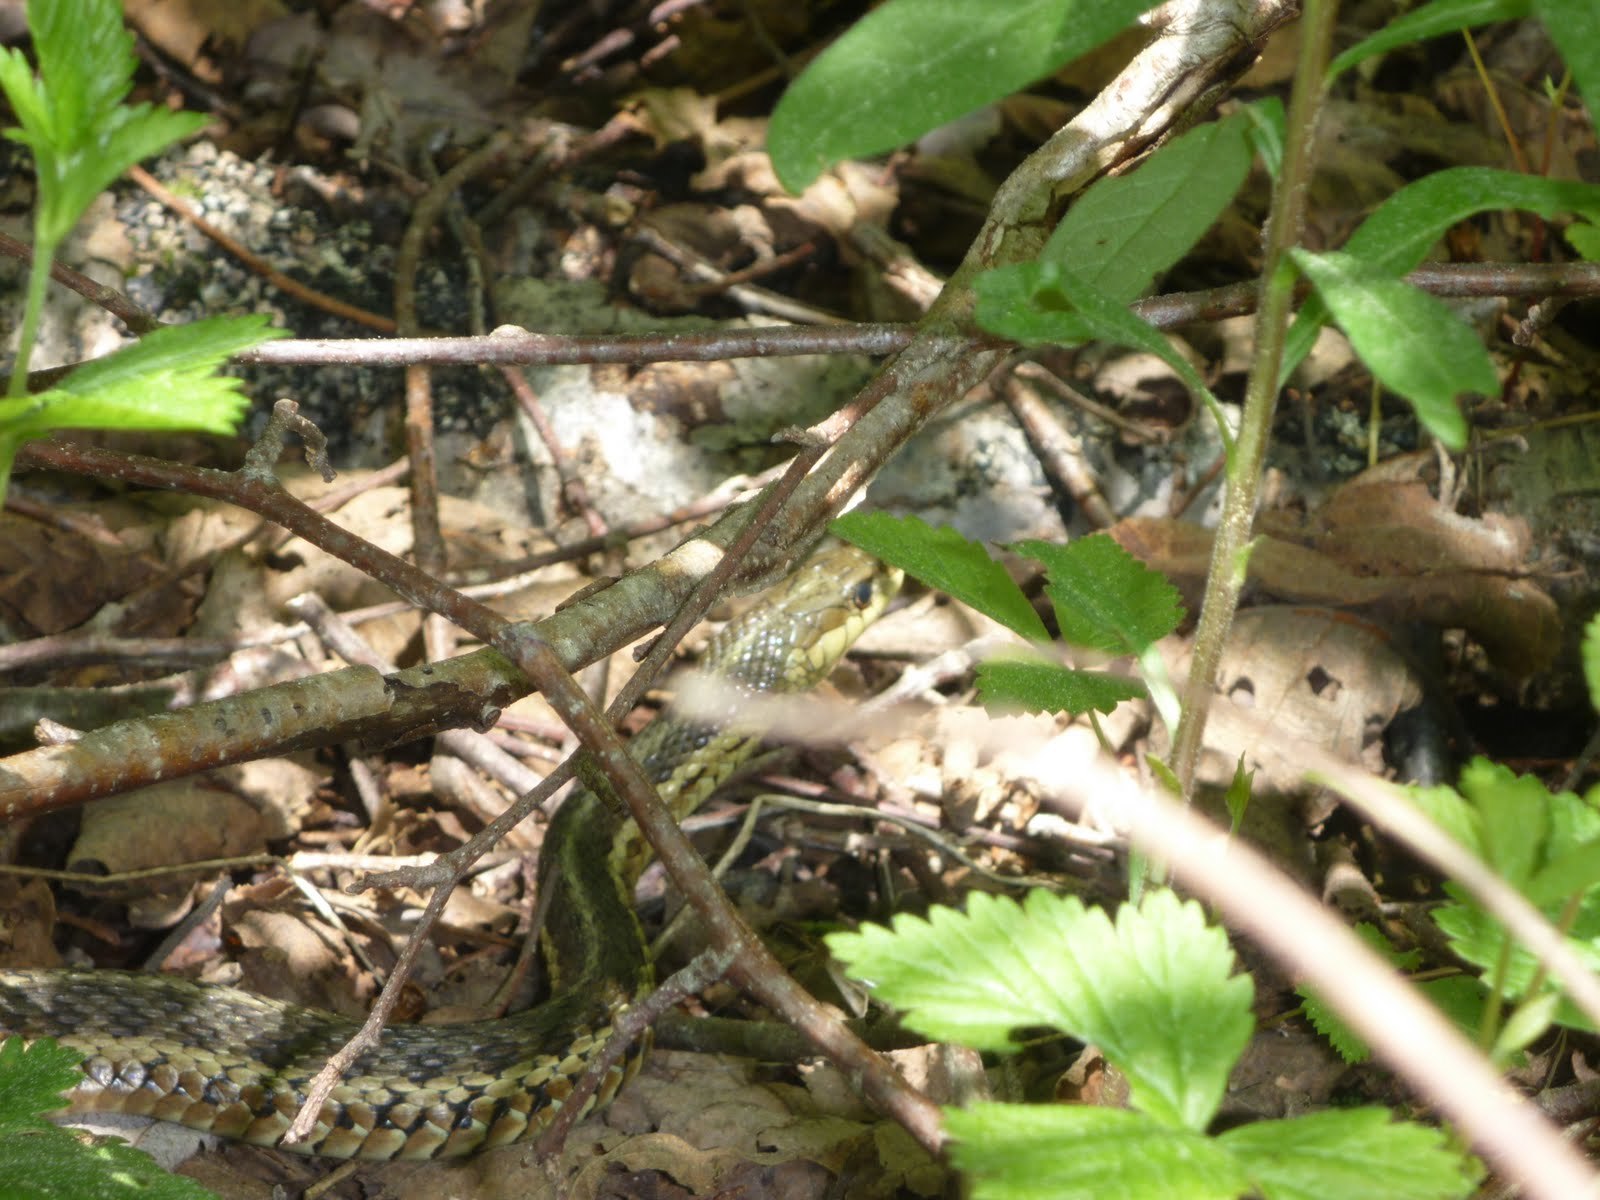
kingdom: Animalia
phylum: Chordata
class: Squamata
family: Colubridae
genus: Thamnophis
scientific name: Thamnophis sirtalis
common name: Common garter snake
